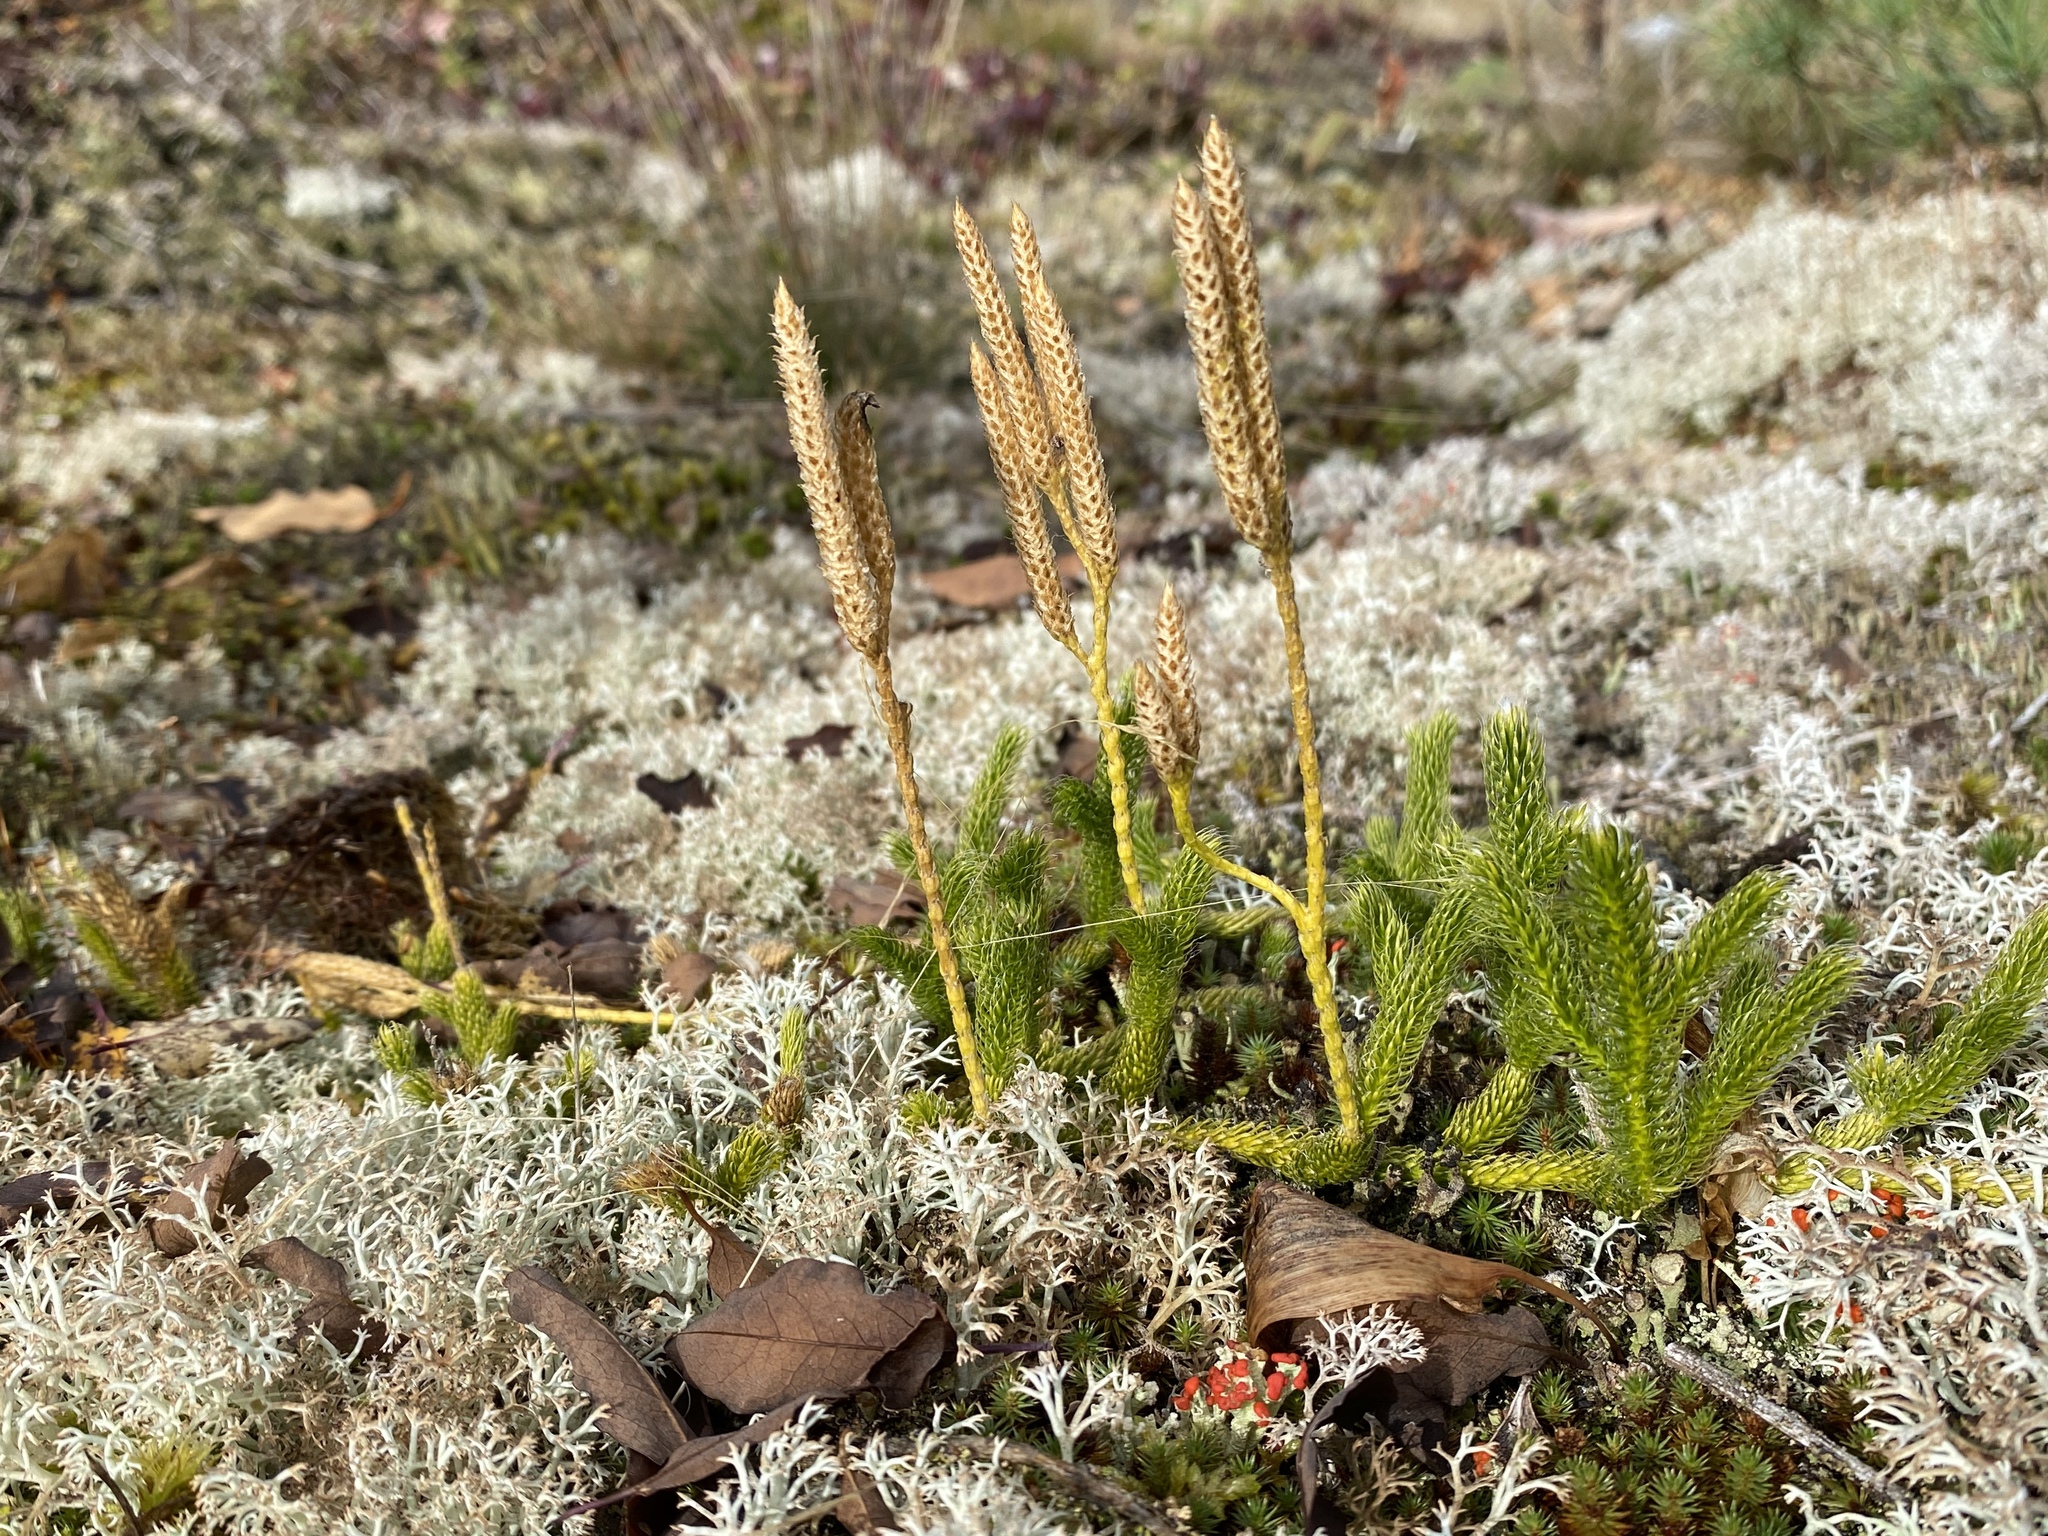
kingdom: Plantae
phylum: Tracheophyta
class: Lycopodiopsida
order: Lycopodiales
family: Lycopodiaceae
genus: Lycopodium
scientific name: Lycopodium clavatum
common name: Stag's-horn clubmoss
